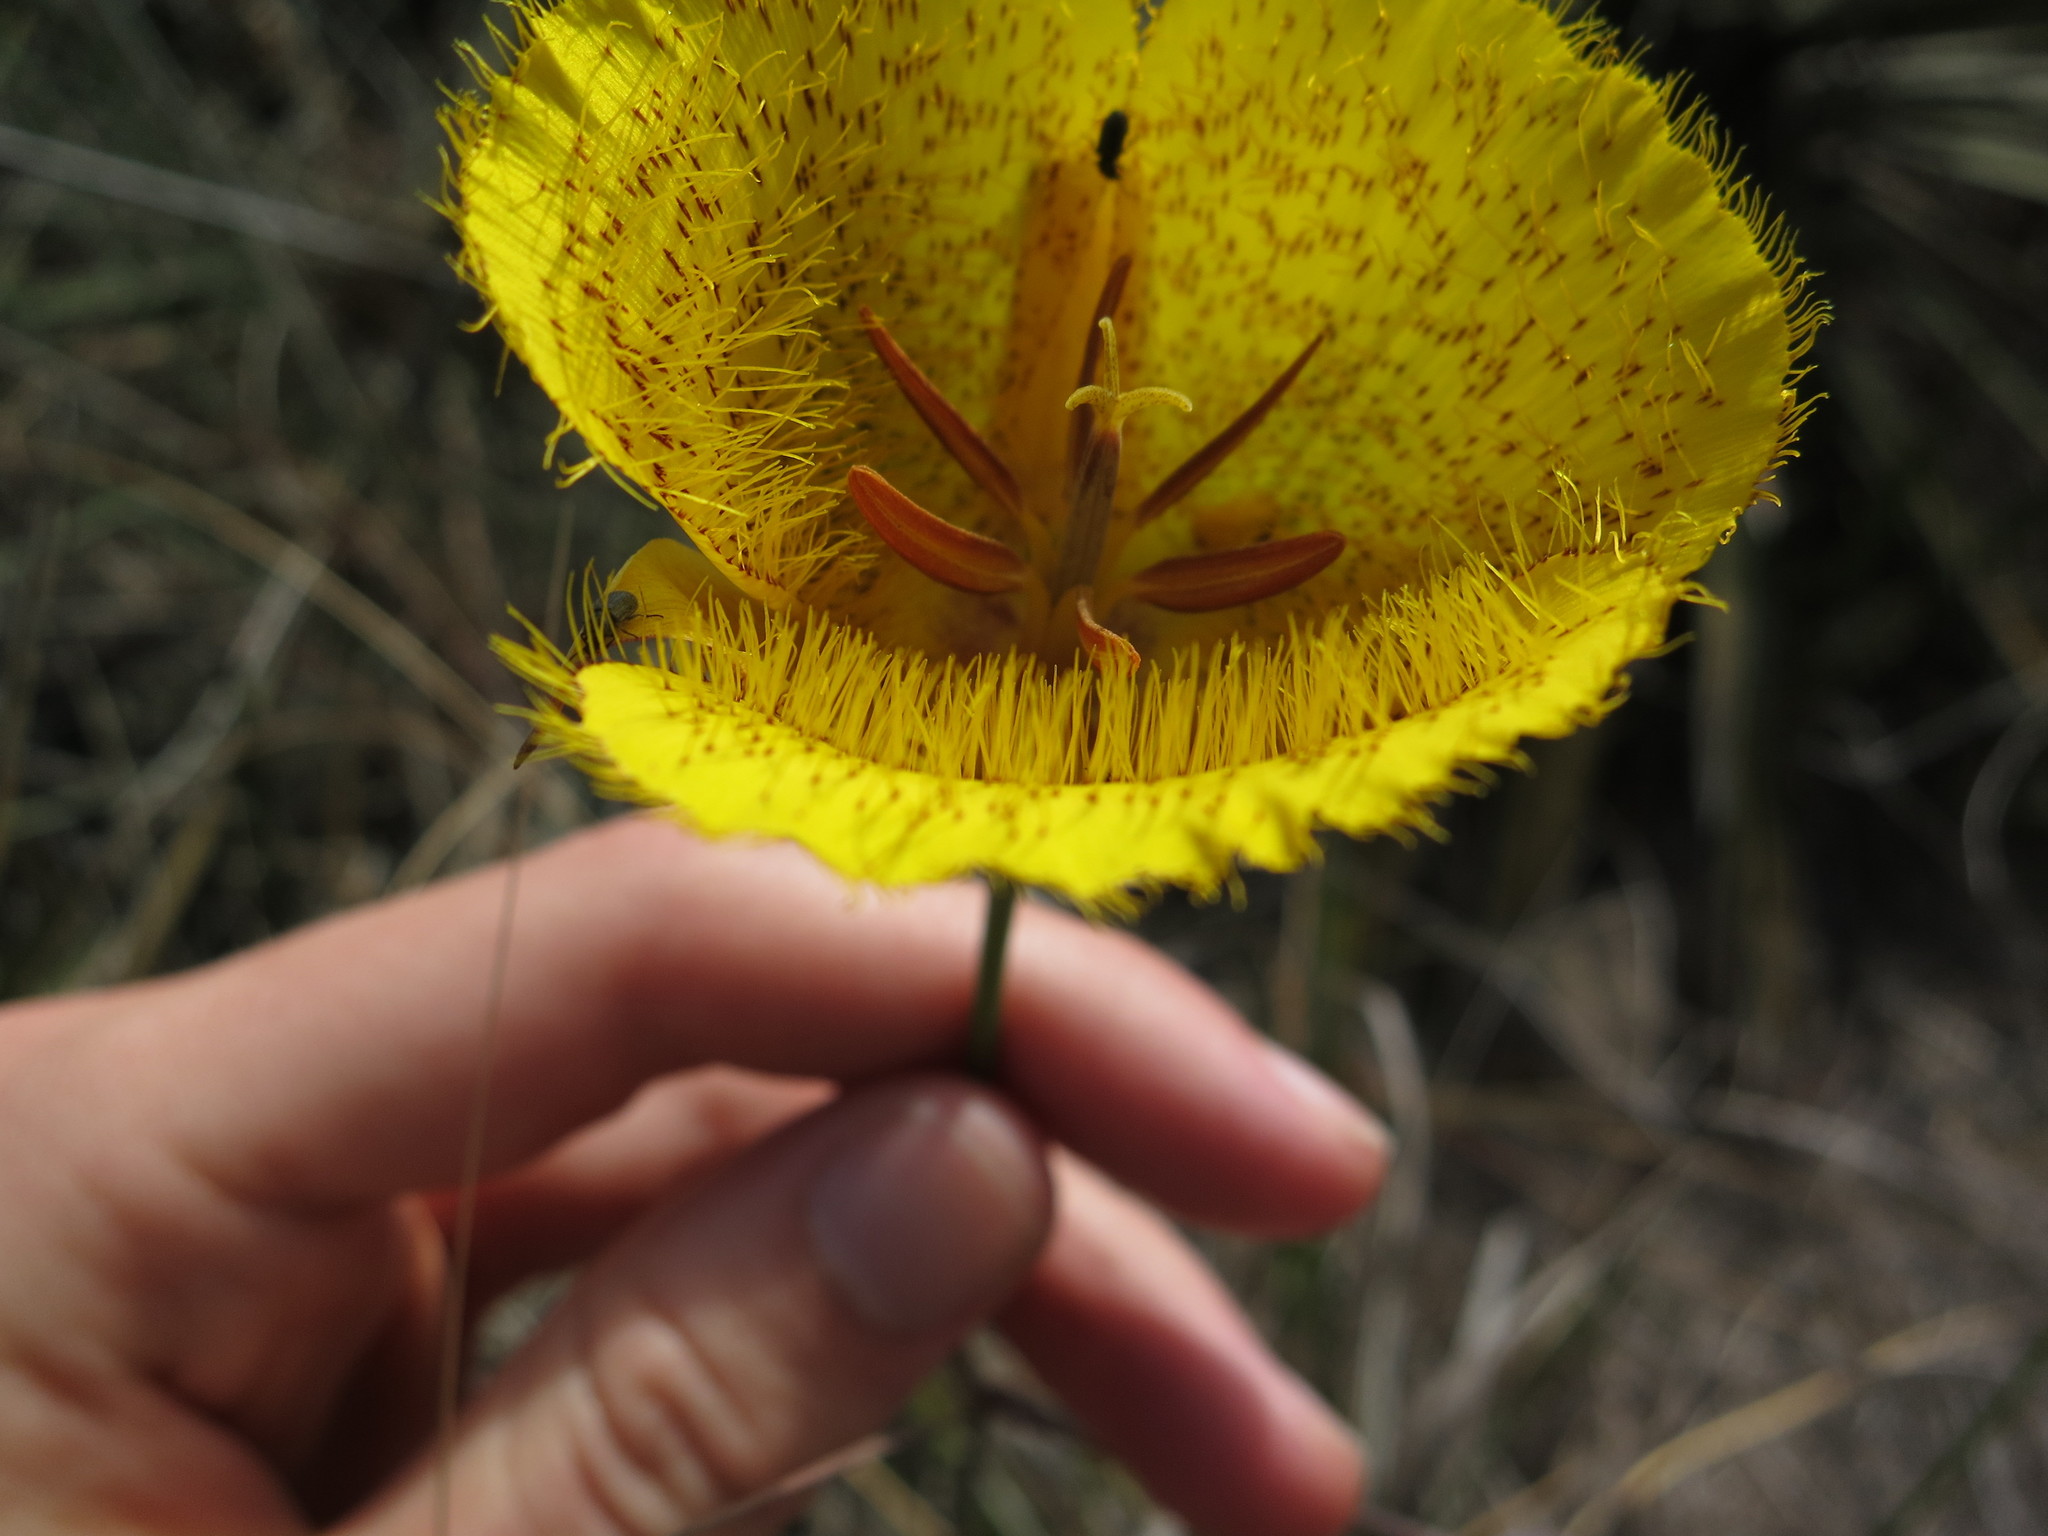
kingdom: Plantae
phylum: Tracheophyta
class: Liliopsida
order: Liliales
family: Liliaceae
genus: Calochortus
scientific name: Calochortus weedii
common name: Weed's mariposa-lily
